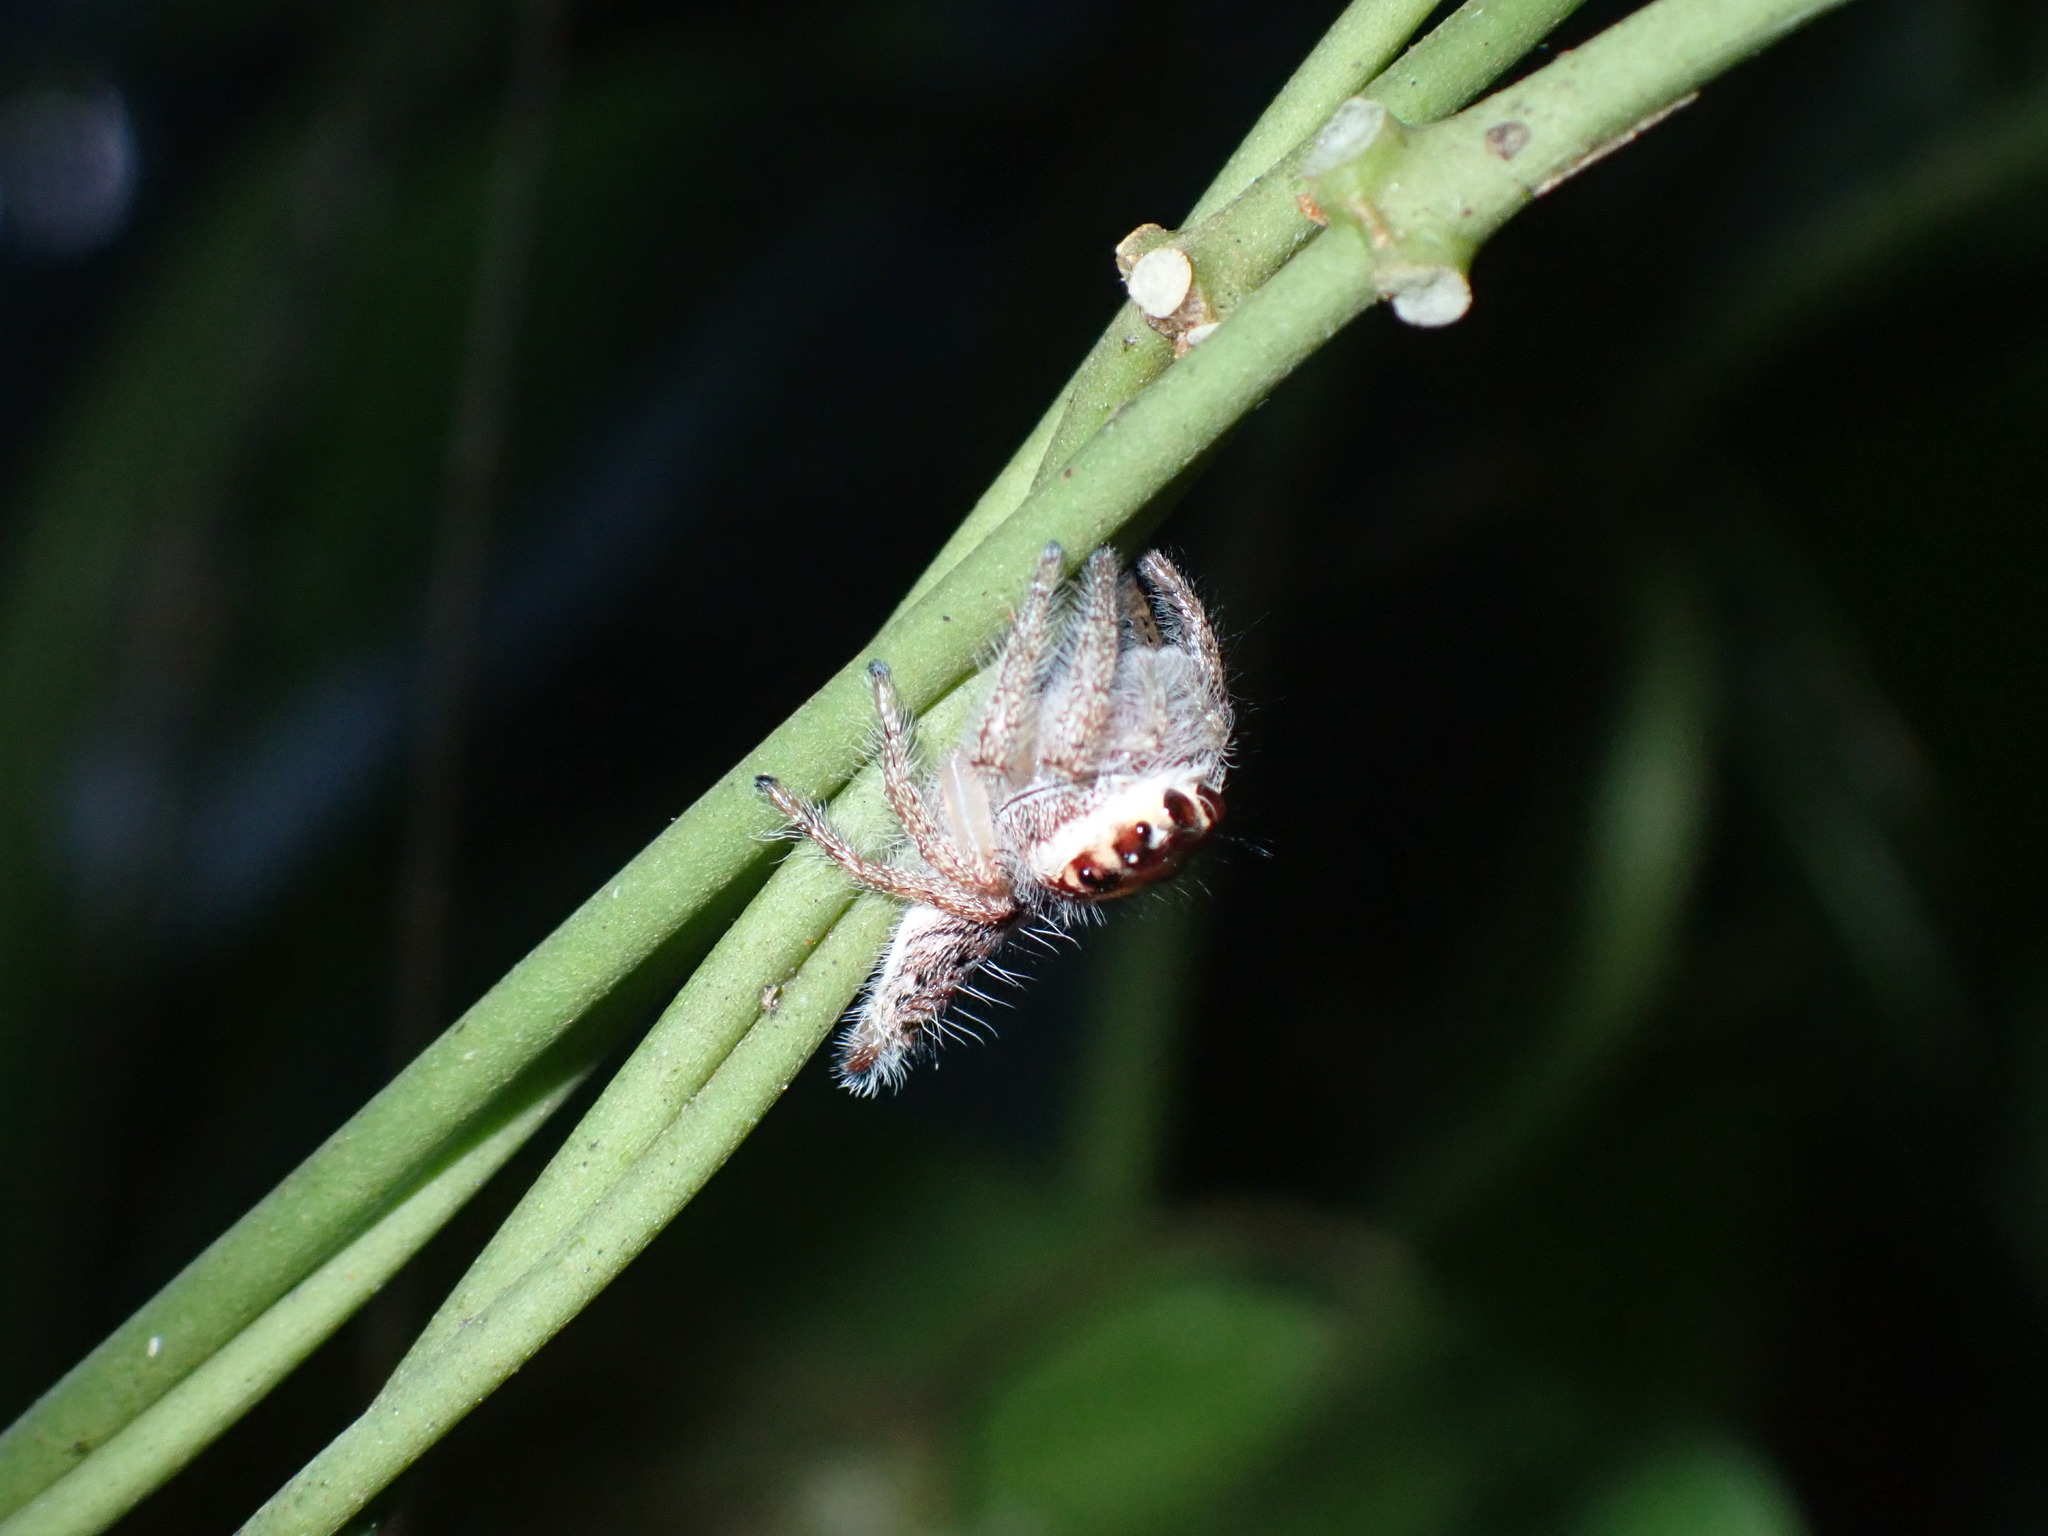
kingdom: Animalia
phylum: Arthropoda
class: Arachnida
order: Araneae
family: Salticidae
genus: Hyllus
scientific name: Hyllus semicupreus
